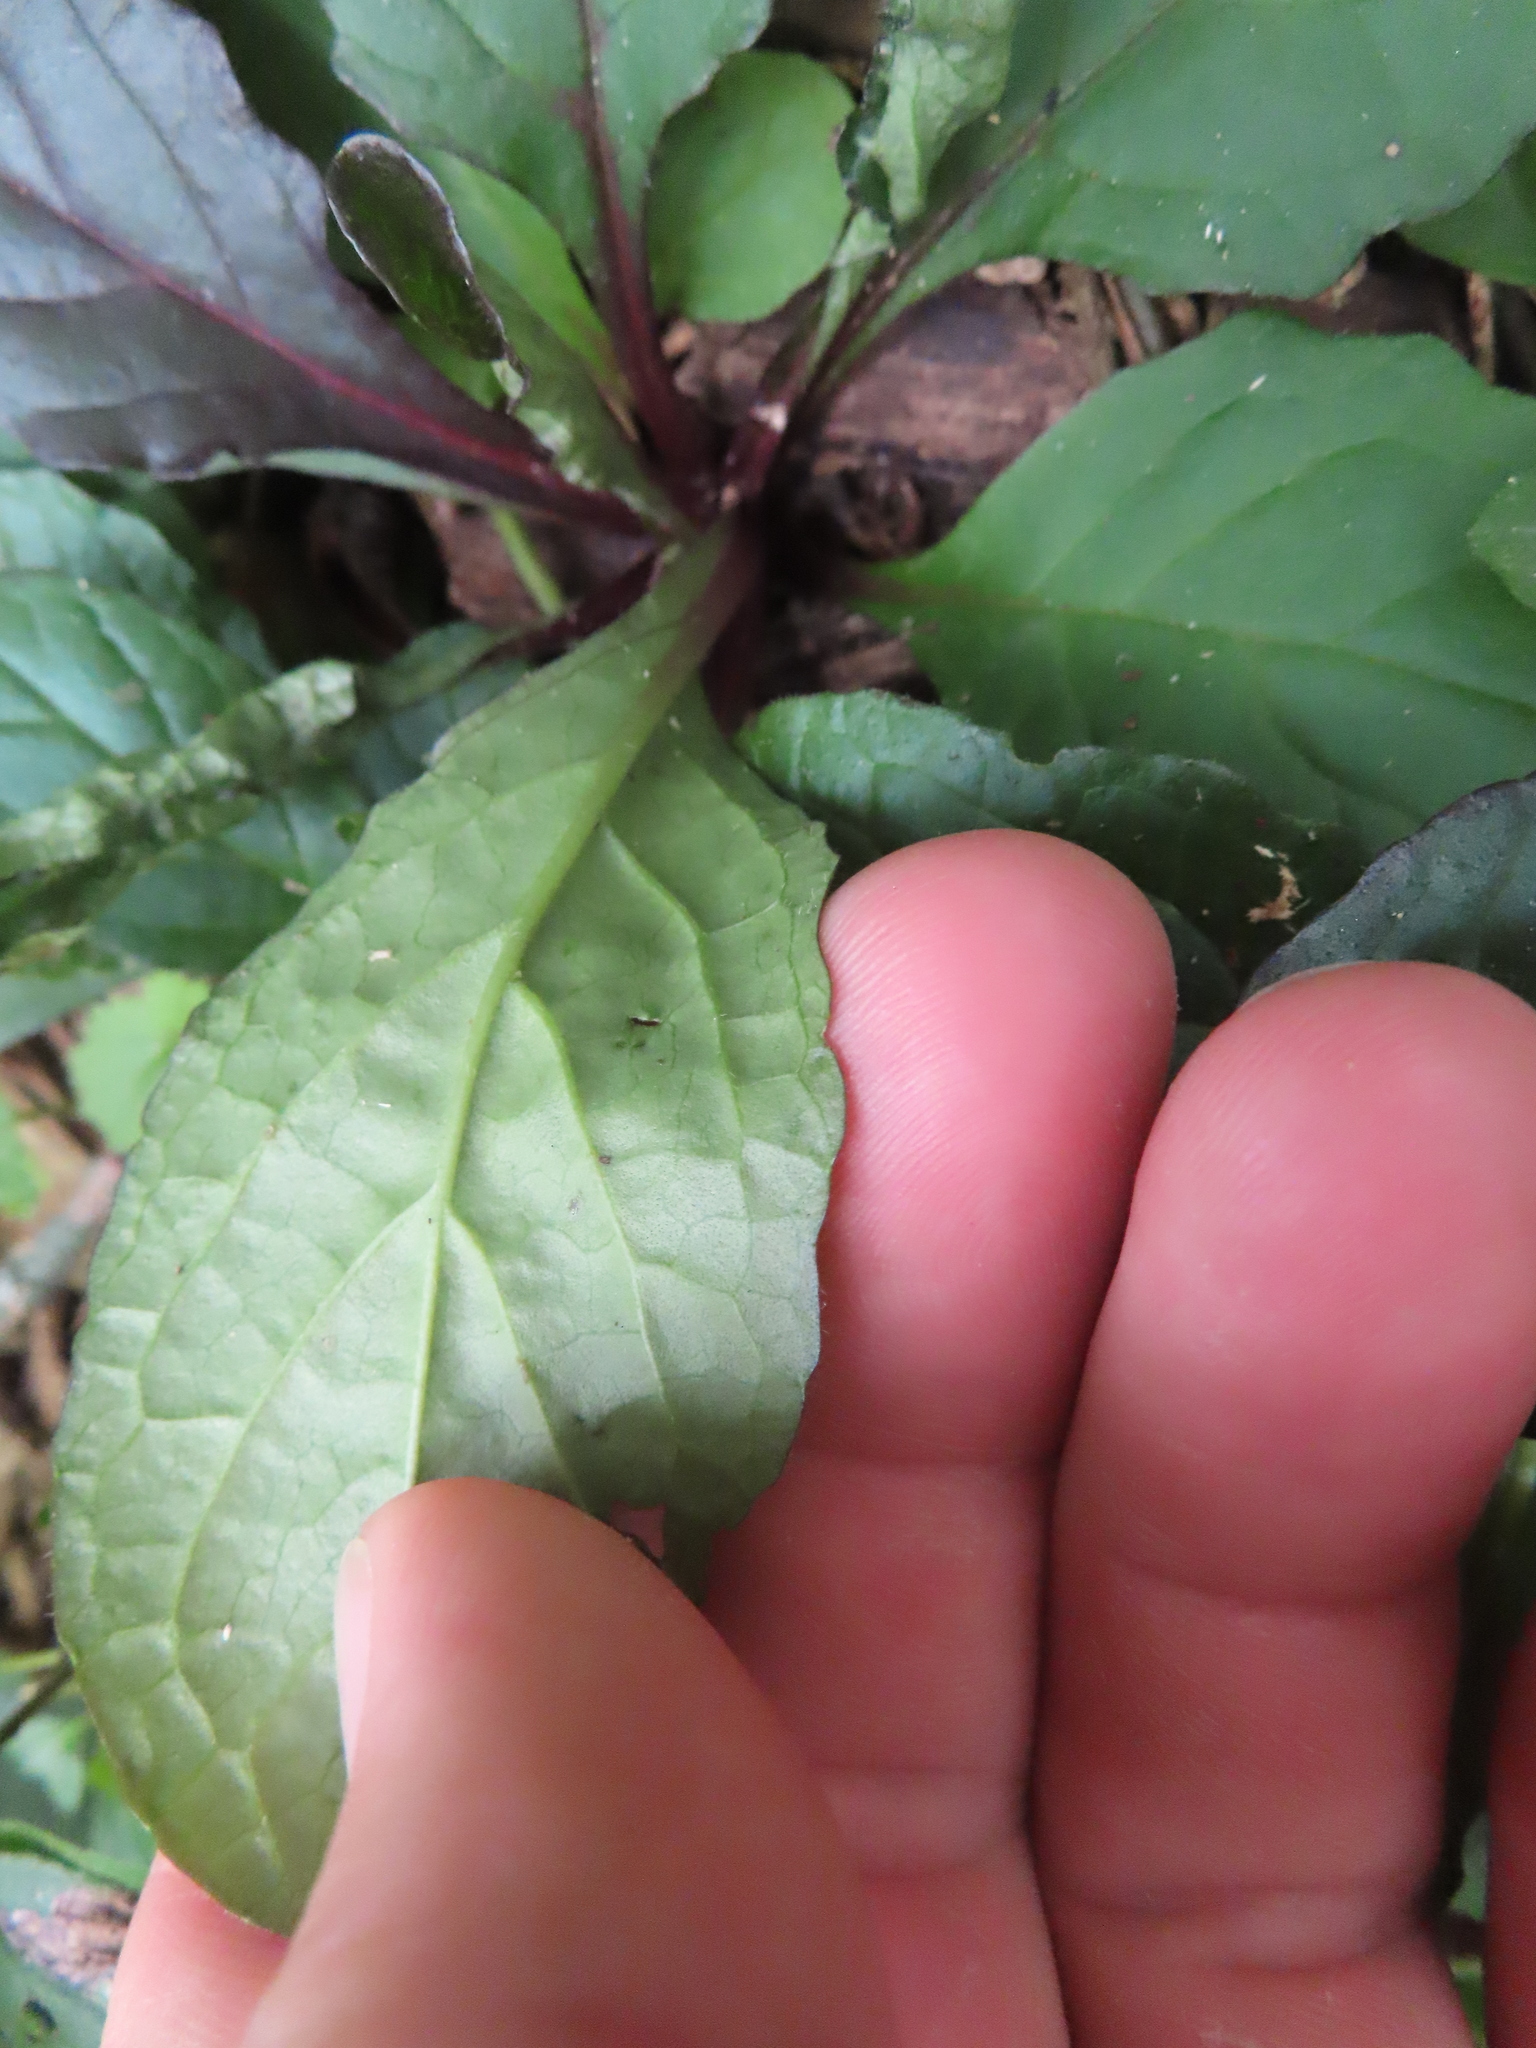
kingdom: Plantae
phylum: Tracheophyta
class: Magnoliopsida
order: Lamiales
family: Lamiaceae
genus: Ajuga
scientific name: Ajuga reptans
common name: Bugle
